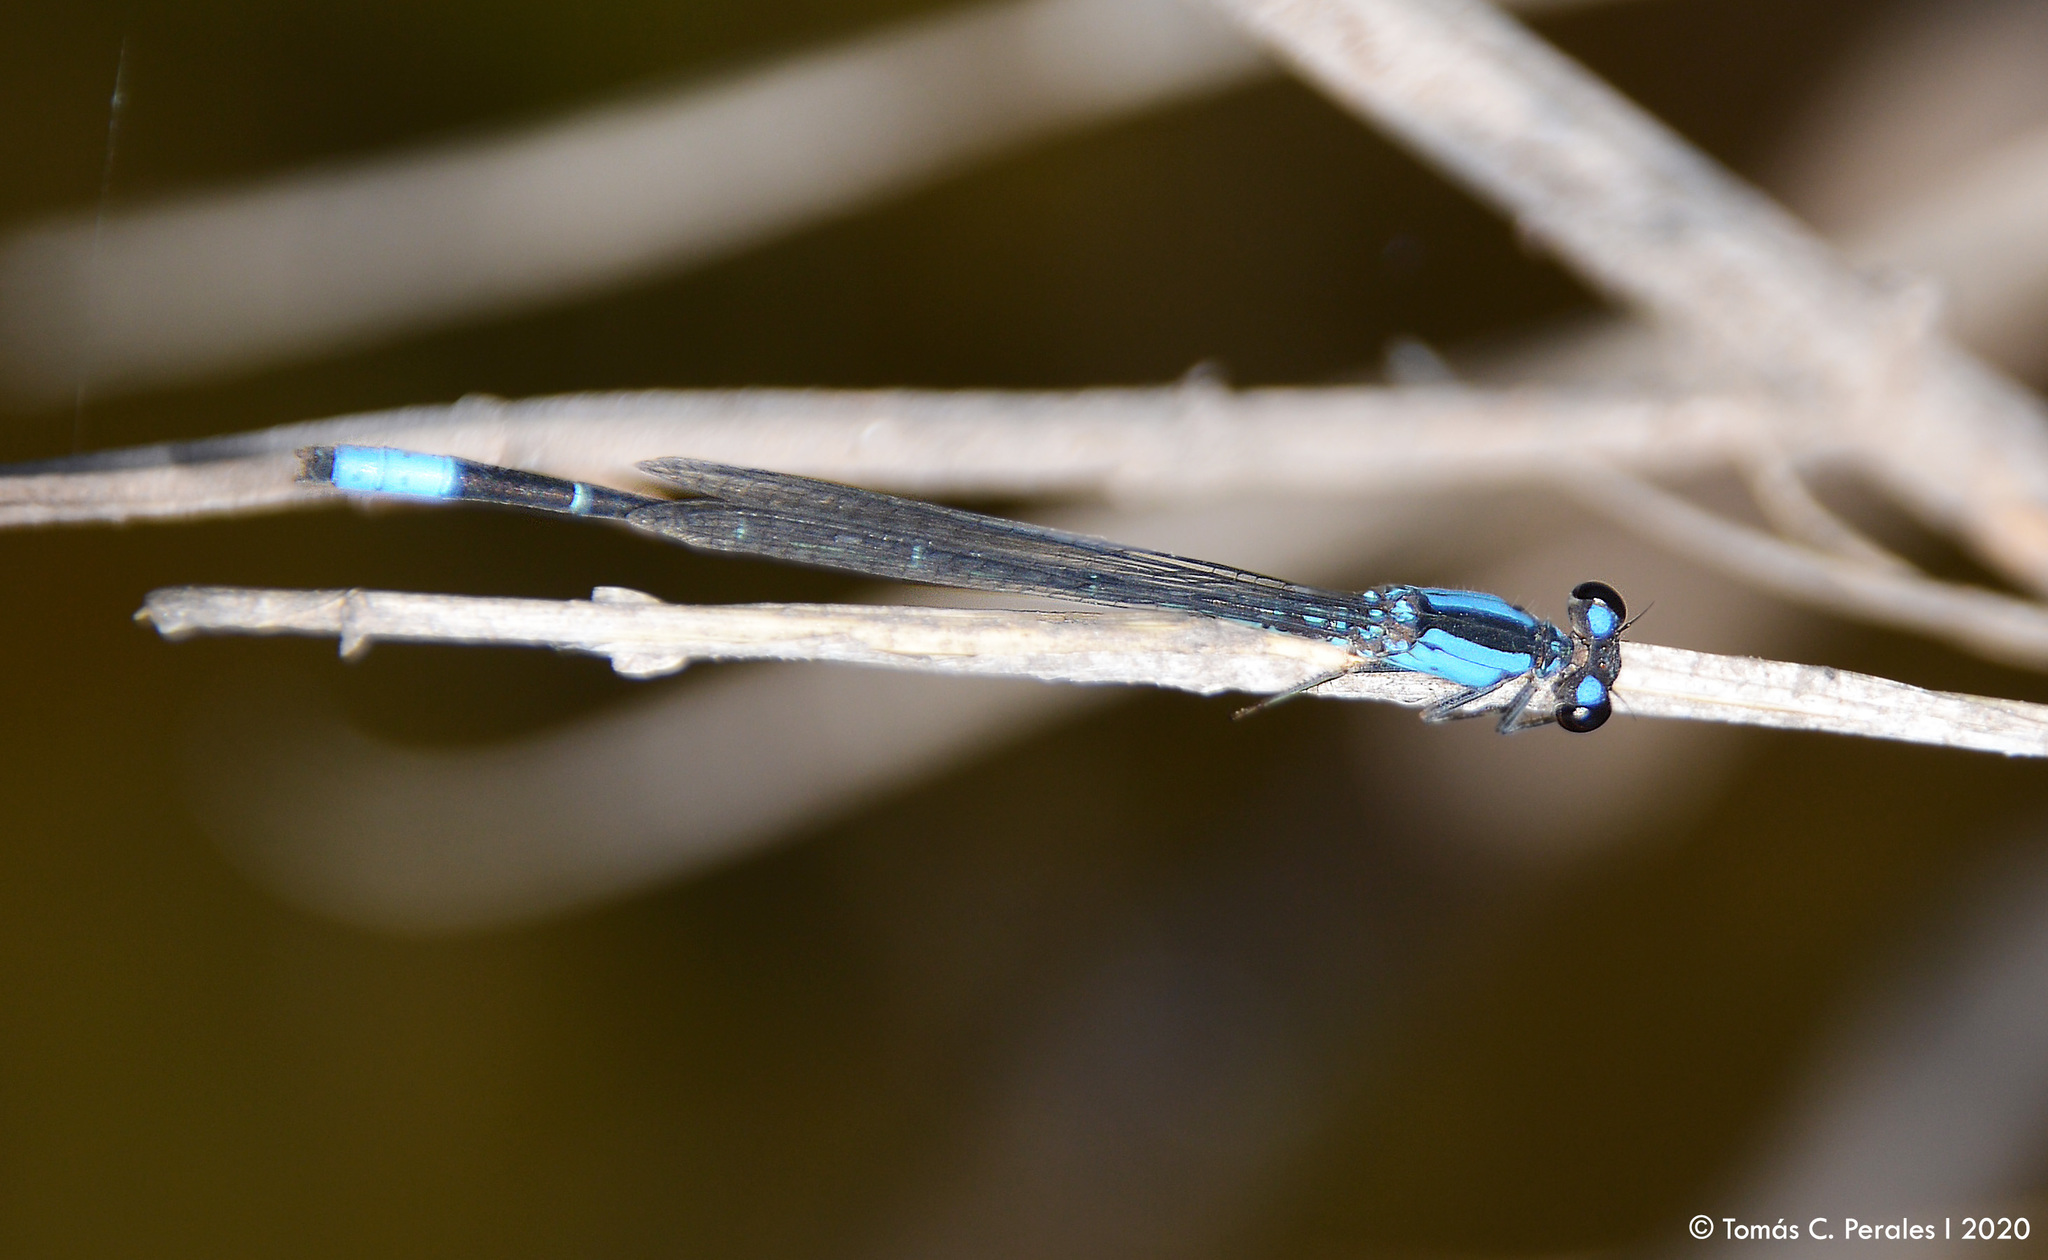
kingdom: Animalia
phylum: Arthropoda
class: Insecta
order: Odonata
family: Coenagrionidae
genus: Oxyagrion
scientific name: Oxyagrion ablutum
